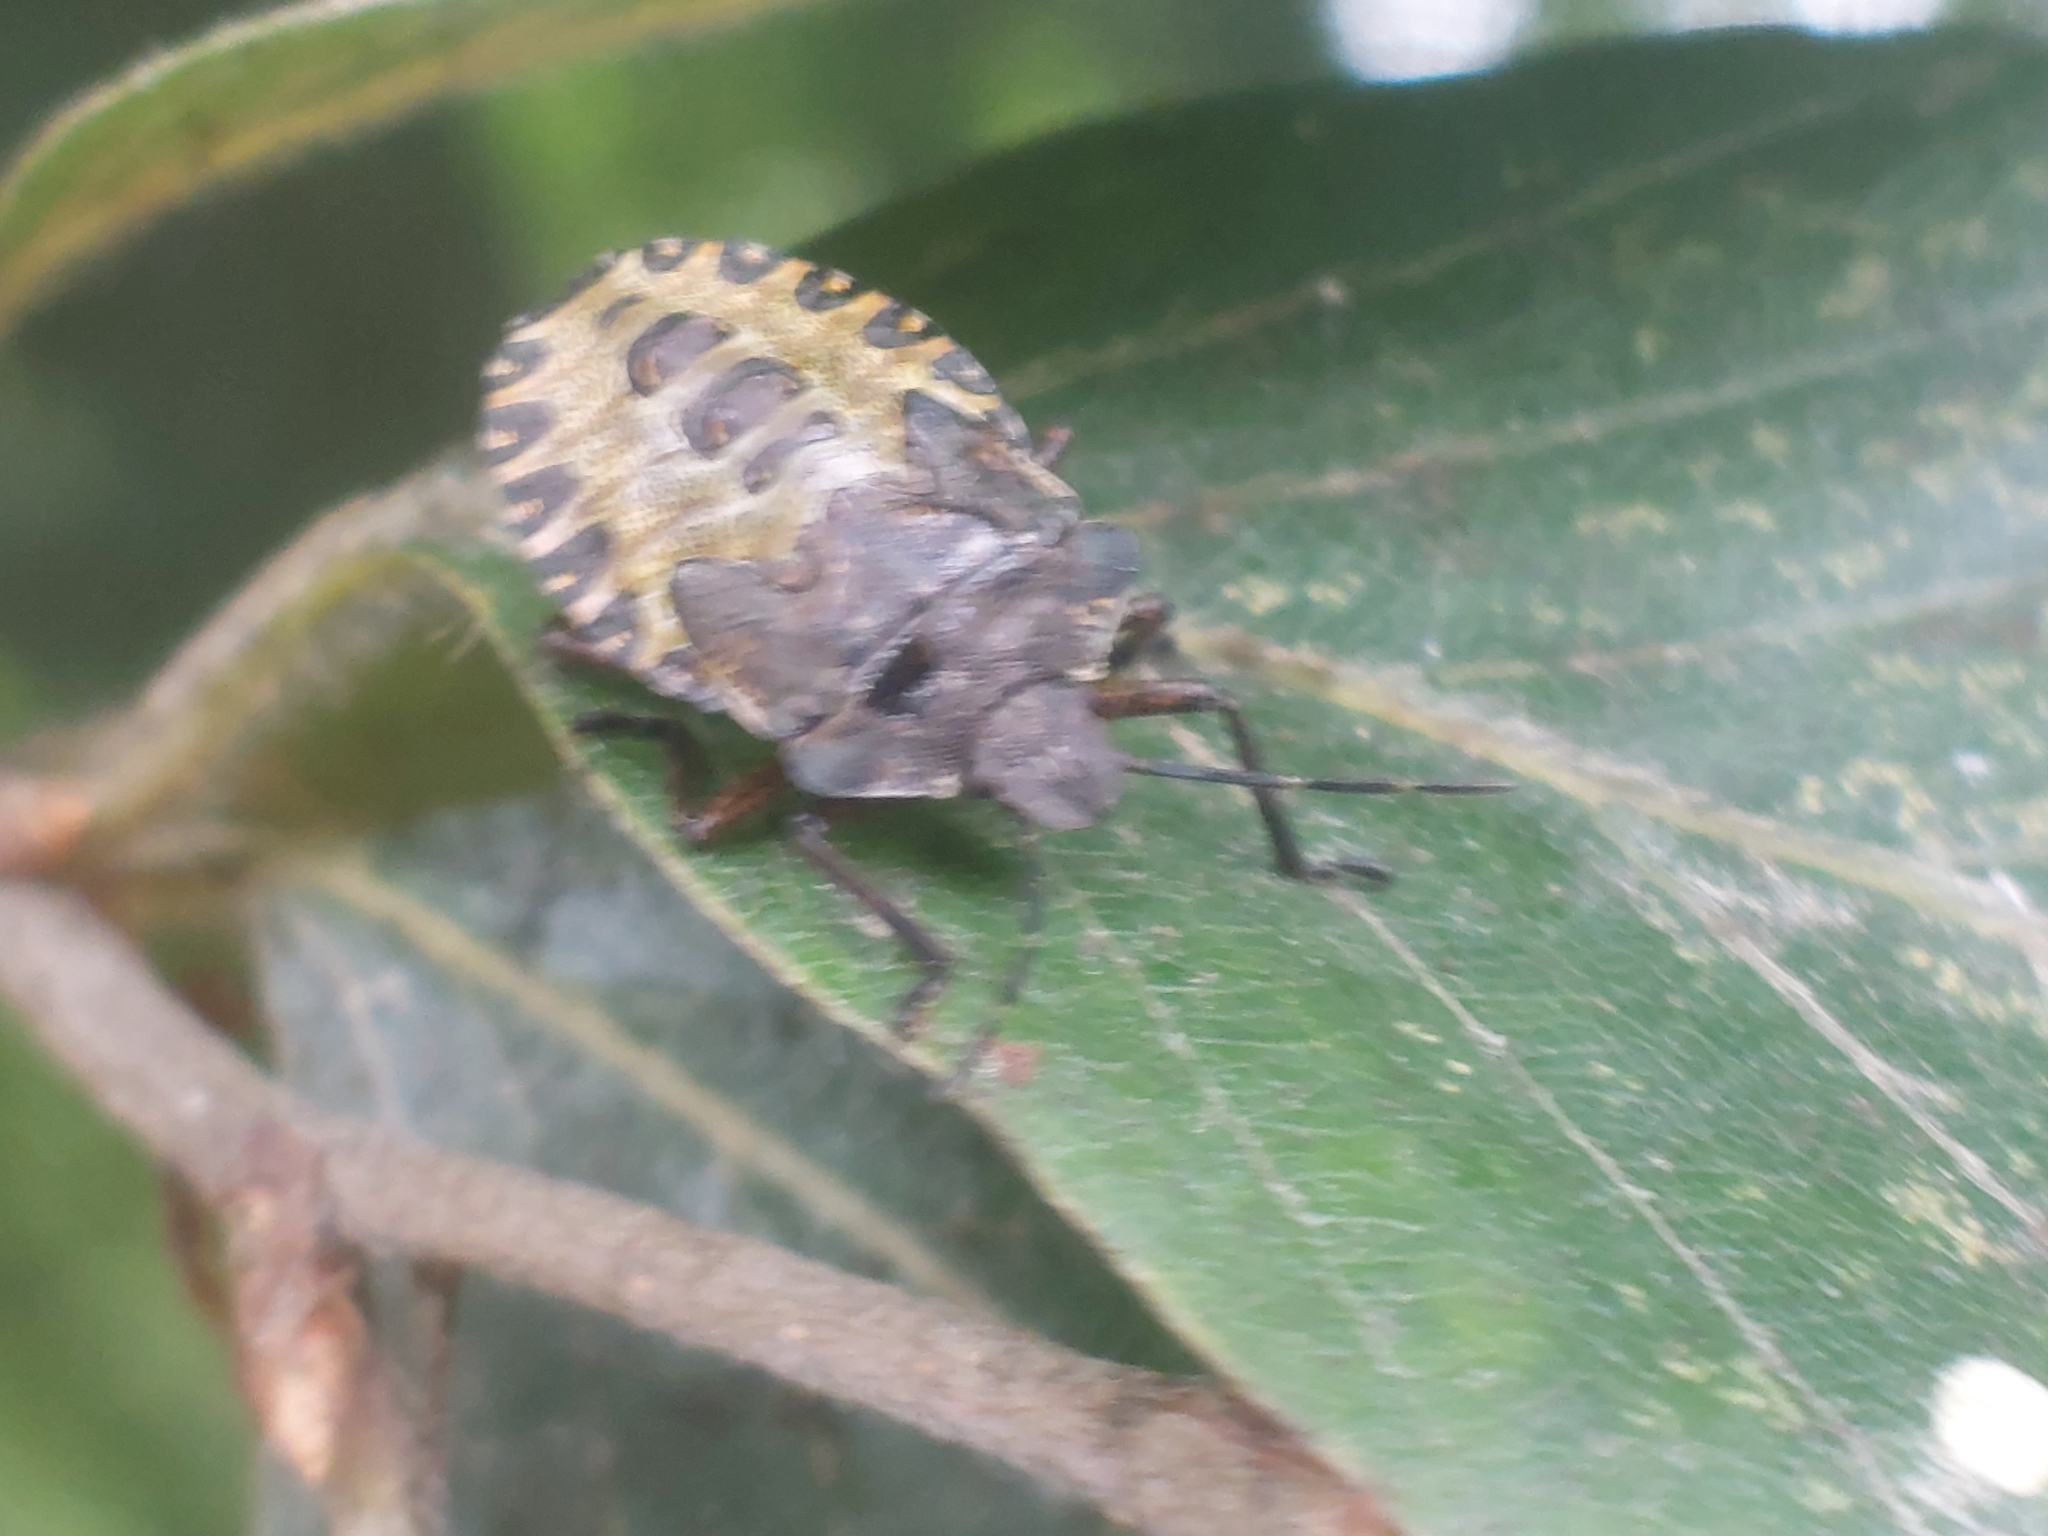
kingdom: Animalia
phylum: Arthropoda
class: Insecta
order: Hemiptera
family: Pentatomidae
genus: Pentatoma
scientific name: Pentatoma rufipes
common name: Forest bug
